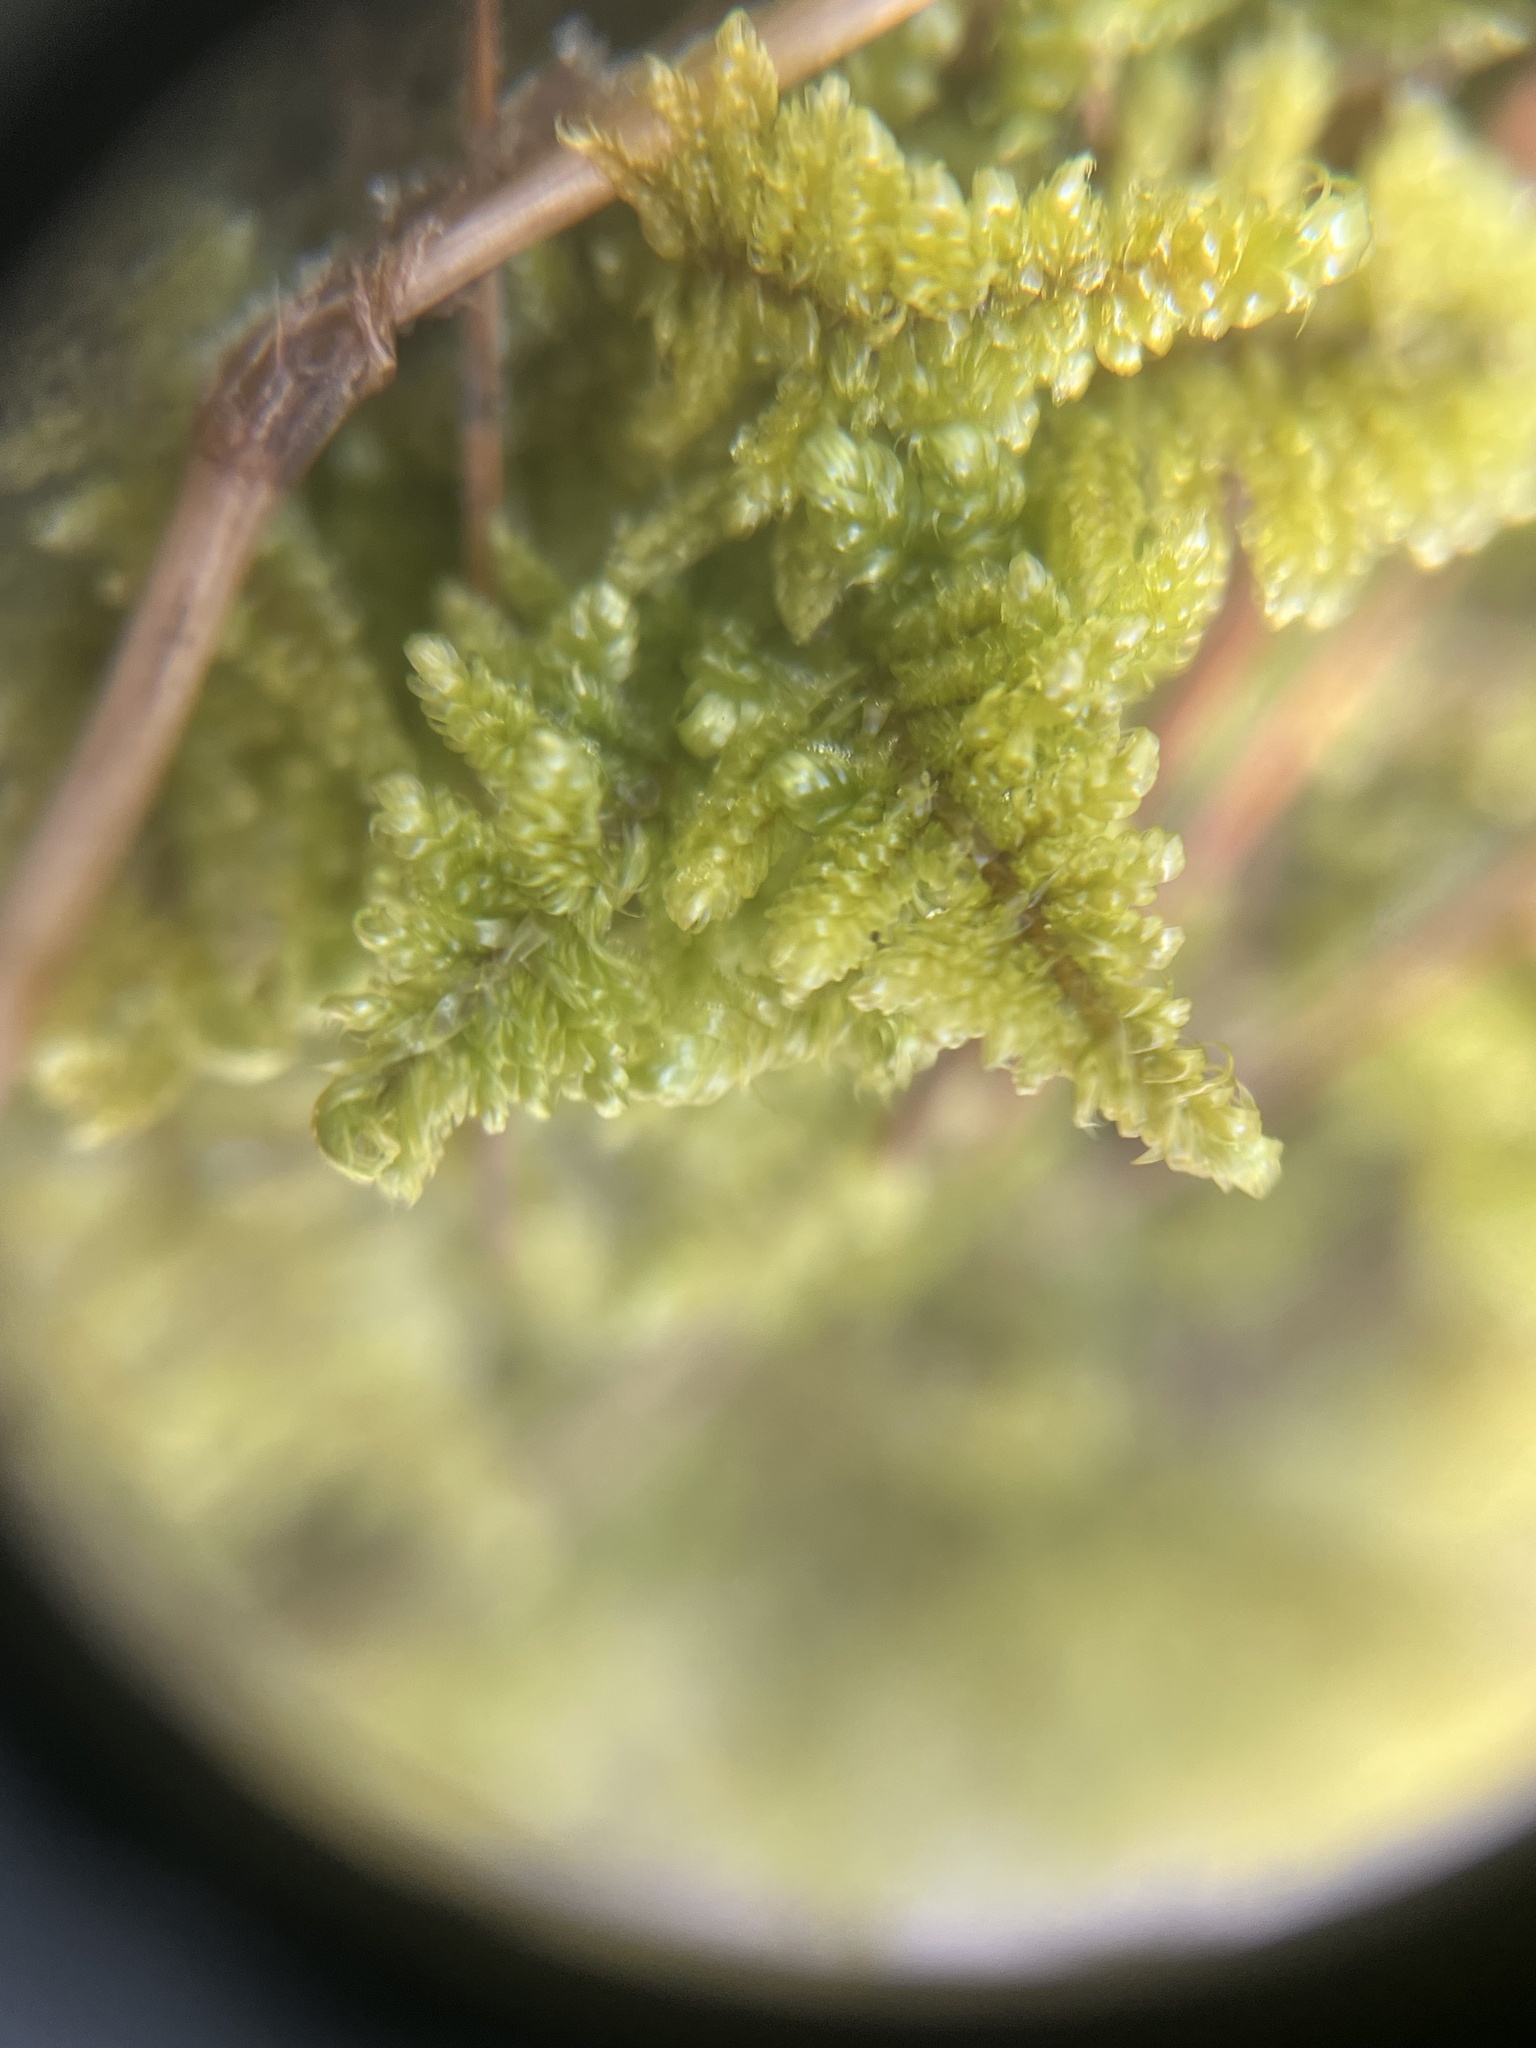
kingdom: Plantae
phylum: Bryophyta
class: Bryopsida
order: Hypnales
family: Callicladiaceae
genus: Callicladium
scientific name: Callicladium imponens
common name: Brocade moss
